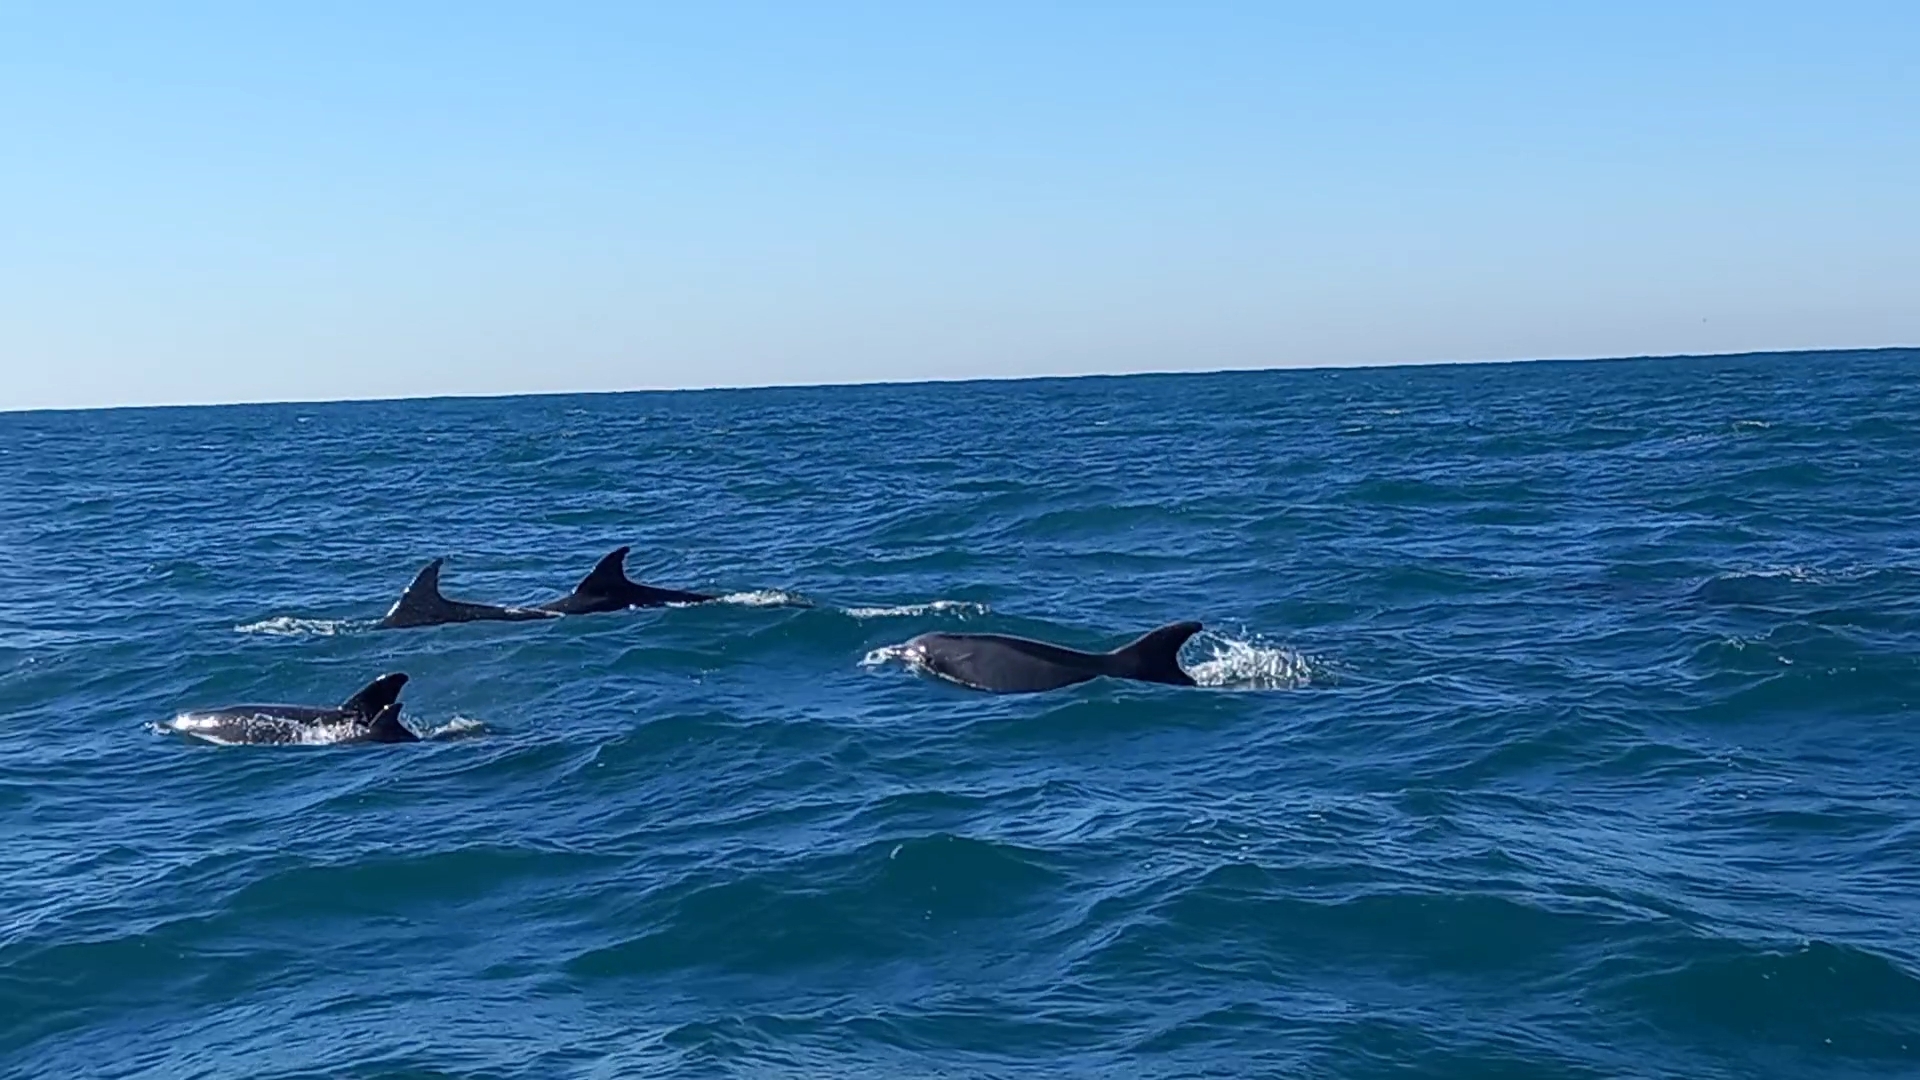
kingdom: Animalia
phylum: Chordata
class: Mammalia
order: Cetacea
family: Delphinidae
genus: Tursiops
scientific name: Tursiops truncatus
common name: Bottlenose dolphin
